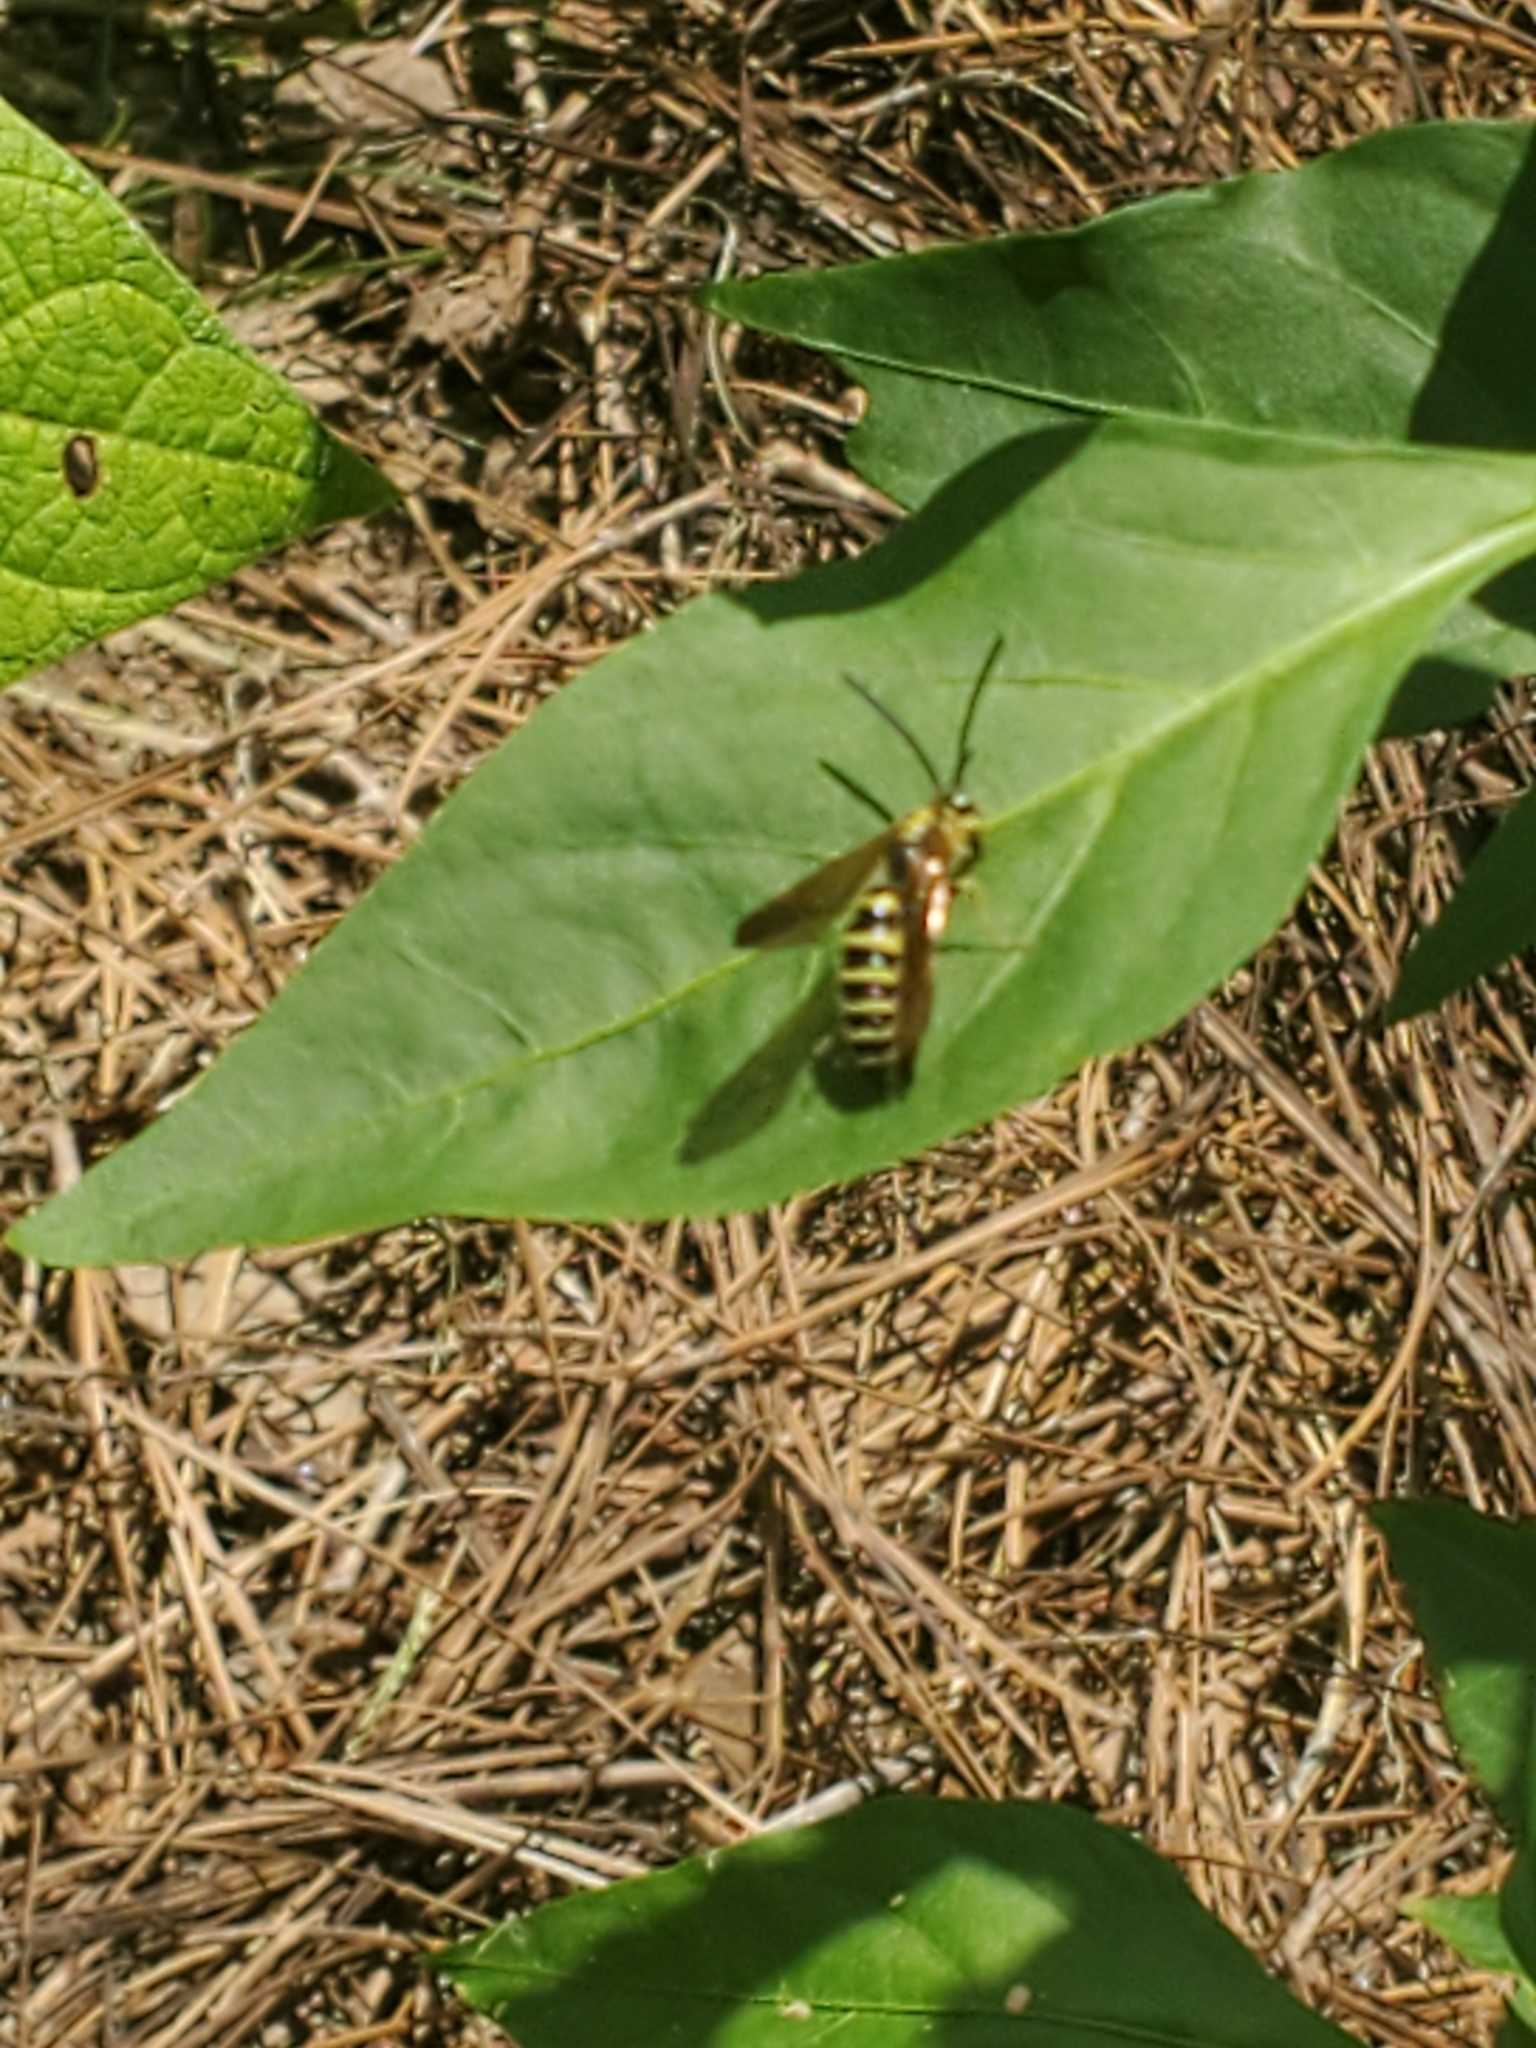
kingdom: Animalia
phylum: Arthropoda
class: Insecta
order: Hymenoptera
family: Tiphiidae
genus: Myzinum
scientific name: Myzinum quinquecinctum
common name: Five-banded thynnid wasp
